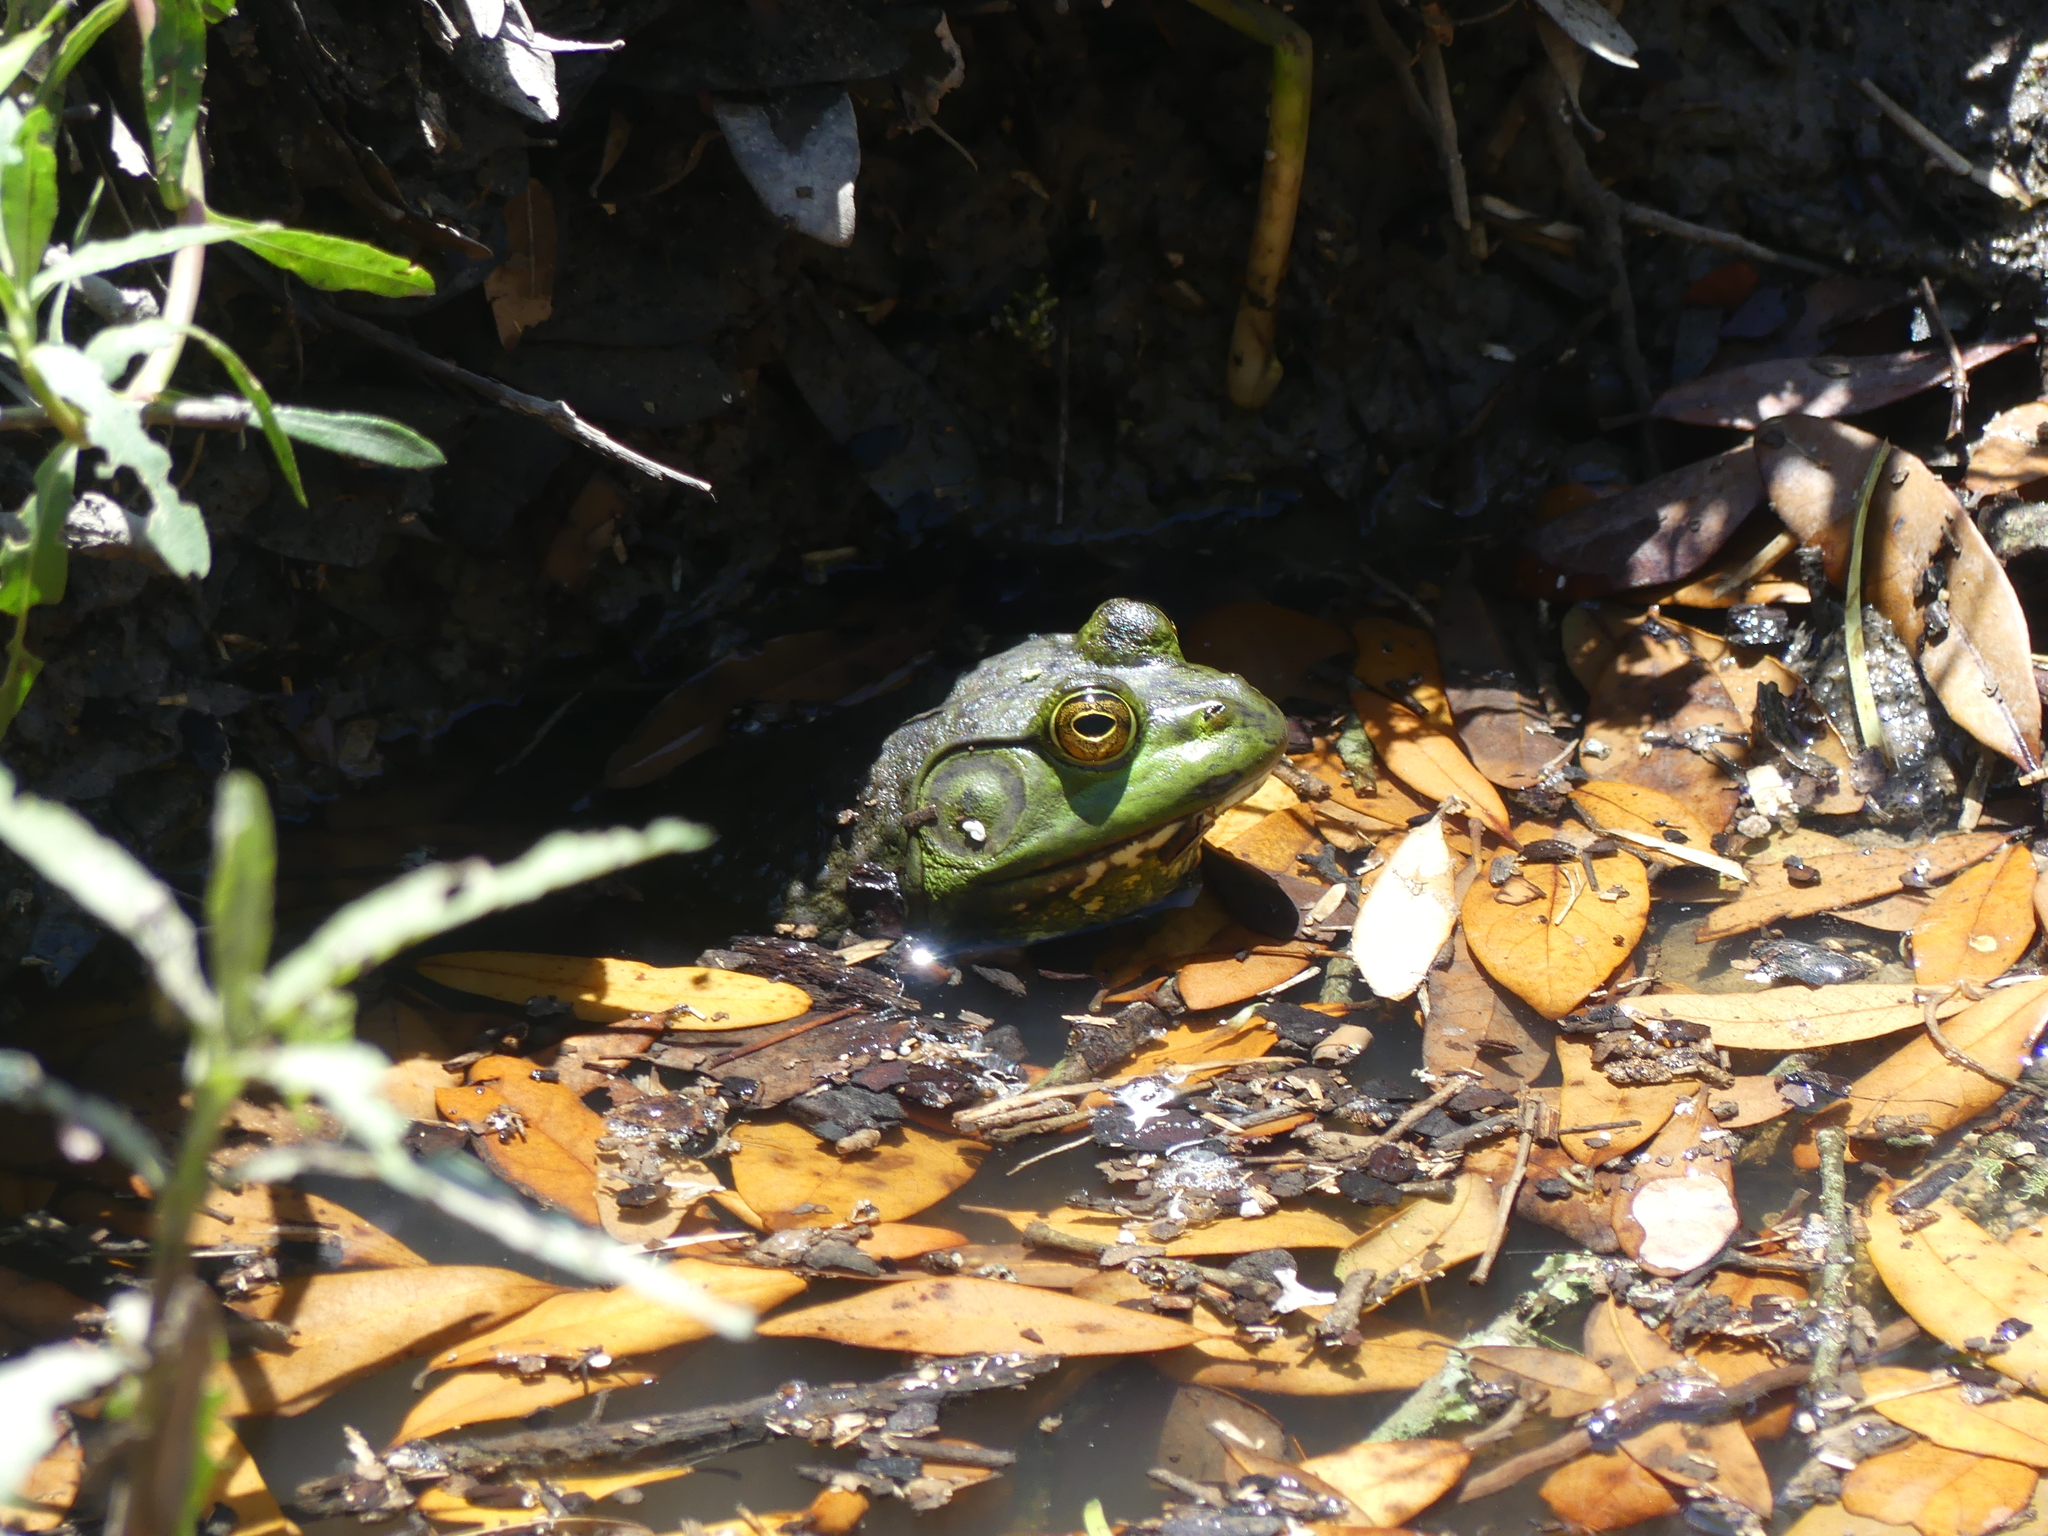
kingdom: Animalia
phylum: Chordata
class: Amphibia
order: Anura
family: Ranidae
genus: Lithobates
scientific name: Lithobates catesbeianus
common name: American bullfrog
